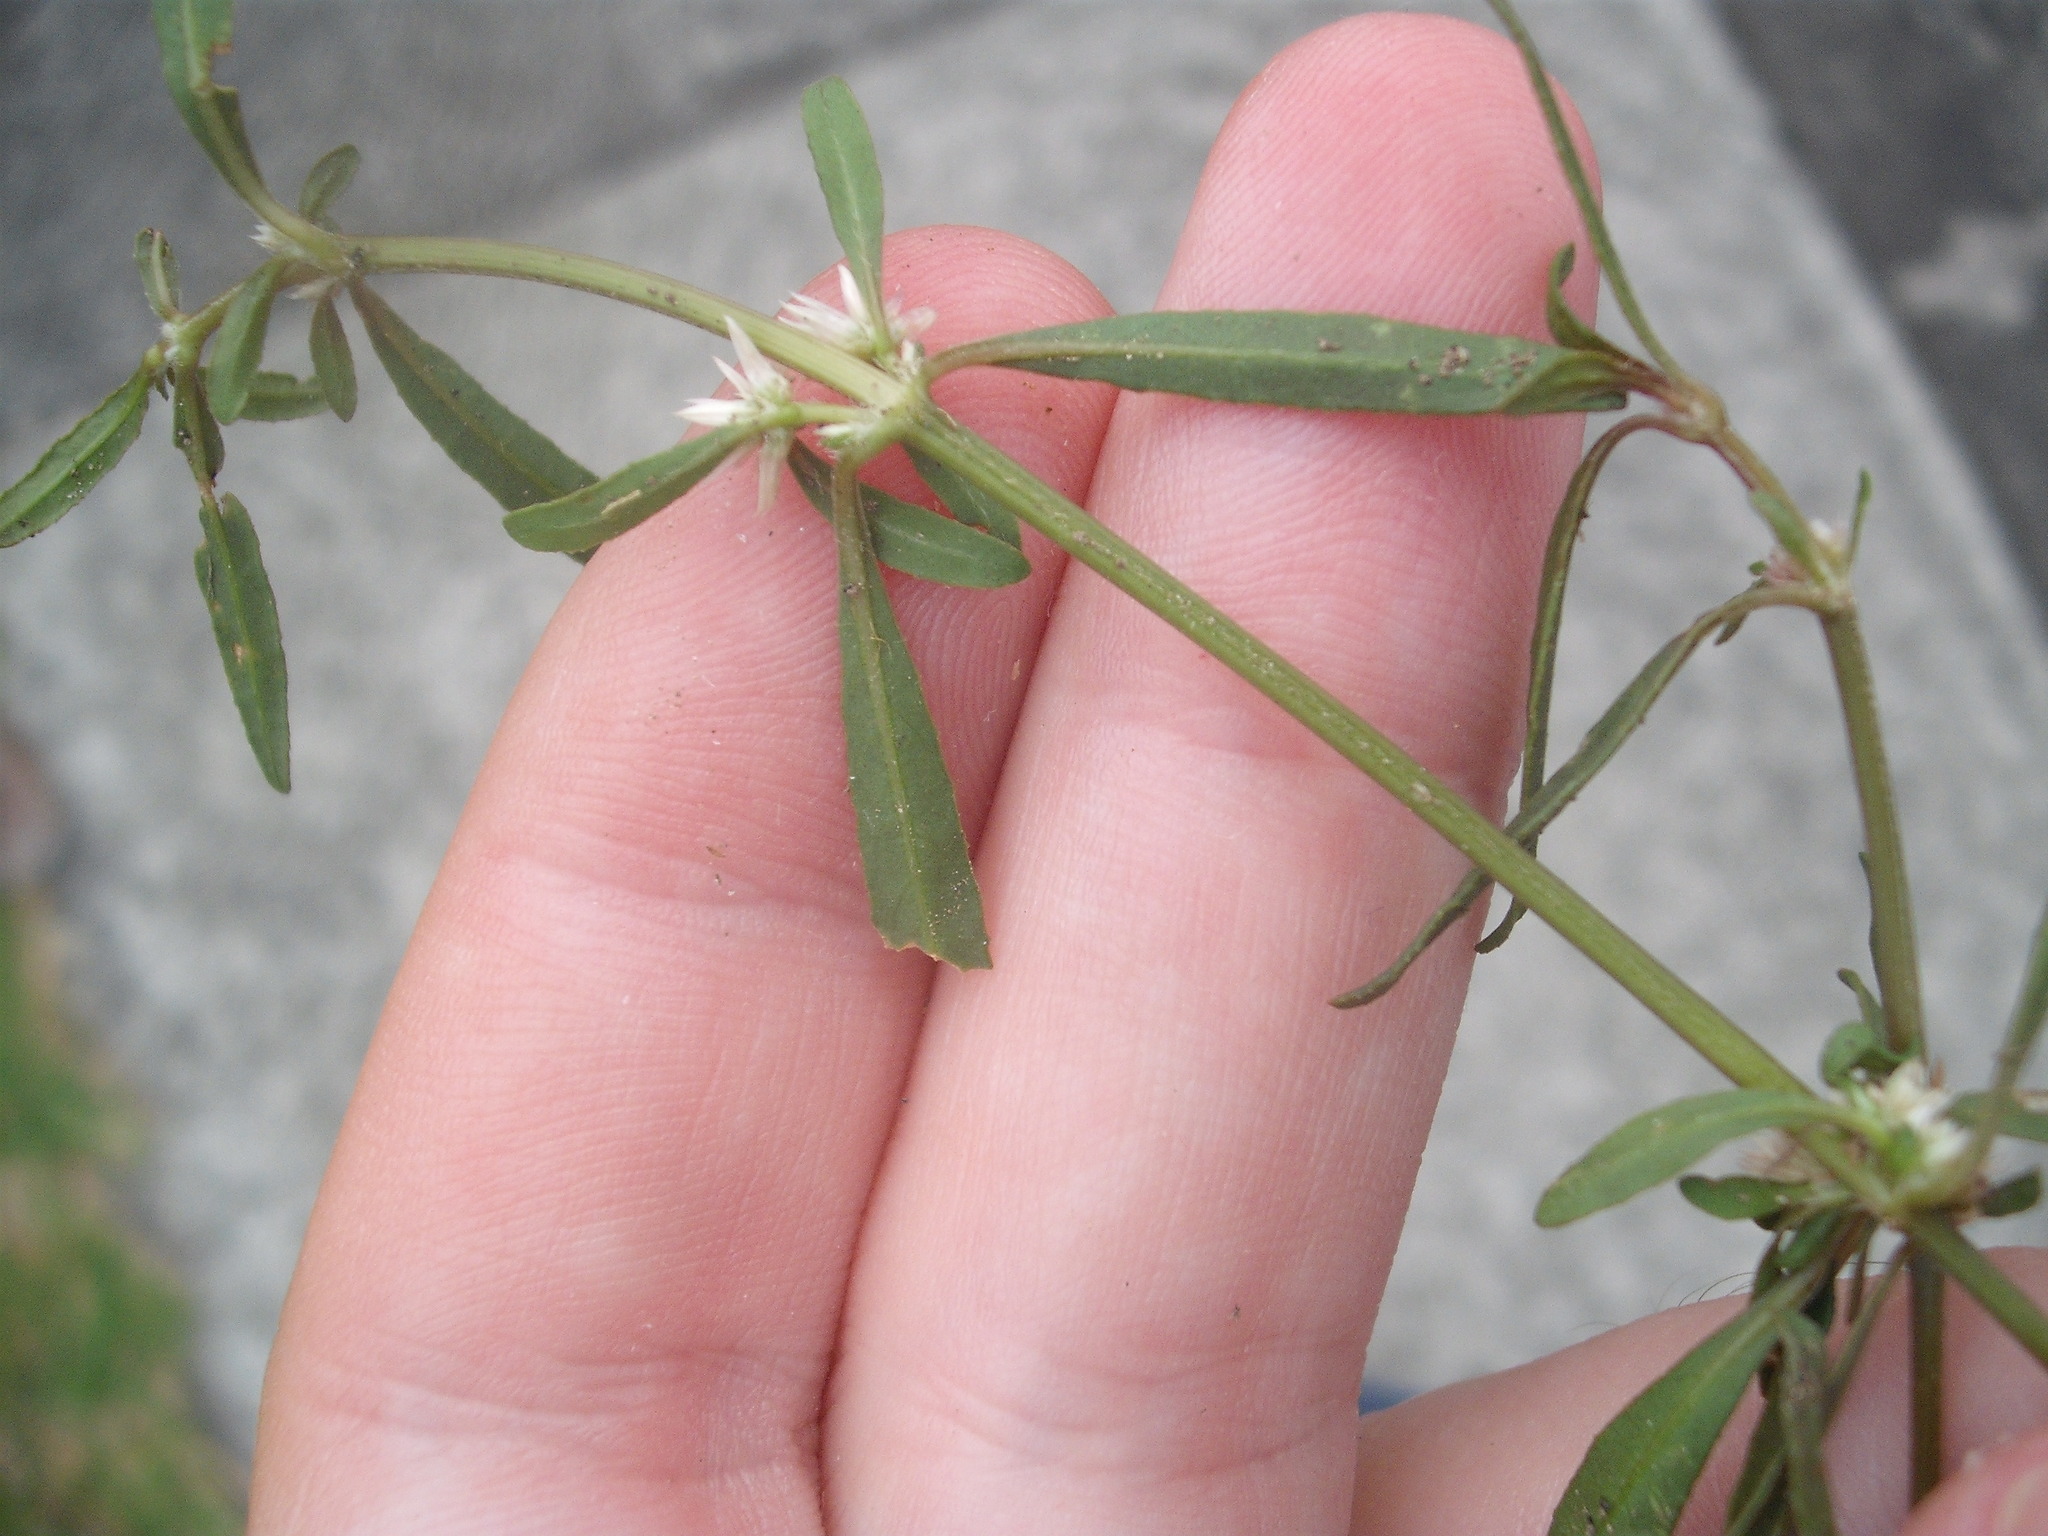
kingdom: Plantae
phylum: Tracheophyta
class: Magnoliopsida
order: Caryophyllales
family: Amaranthaceae
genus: Alternanthera
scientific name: Alternanthera nahui
